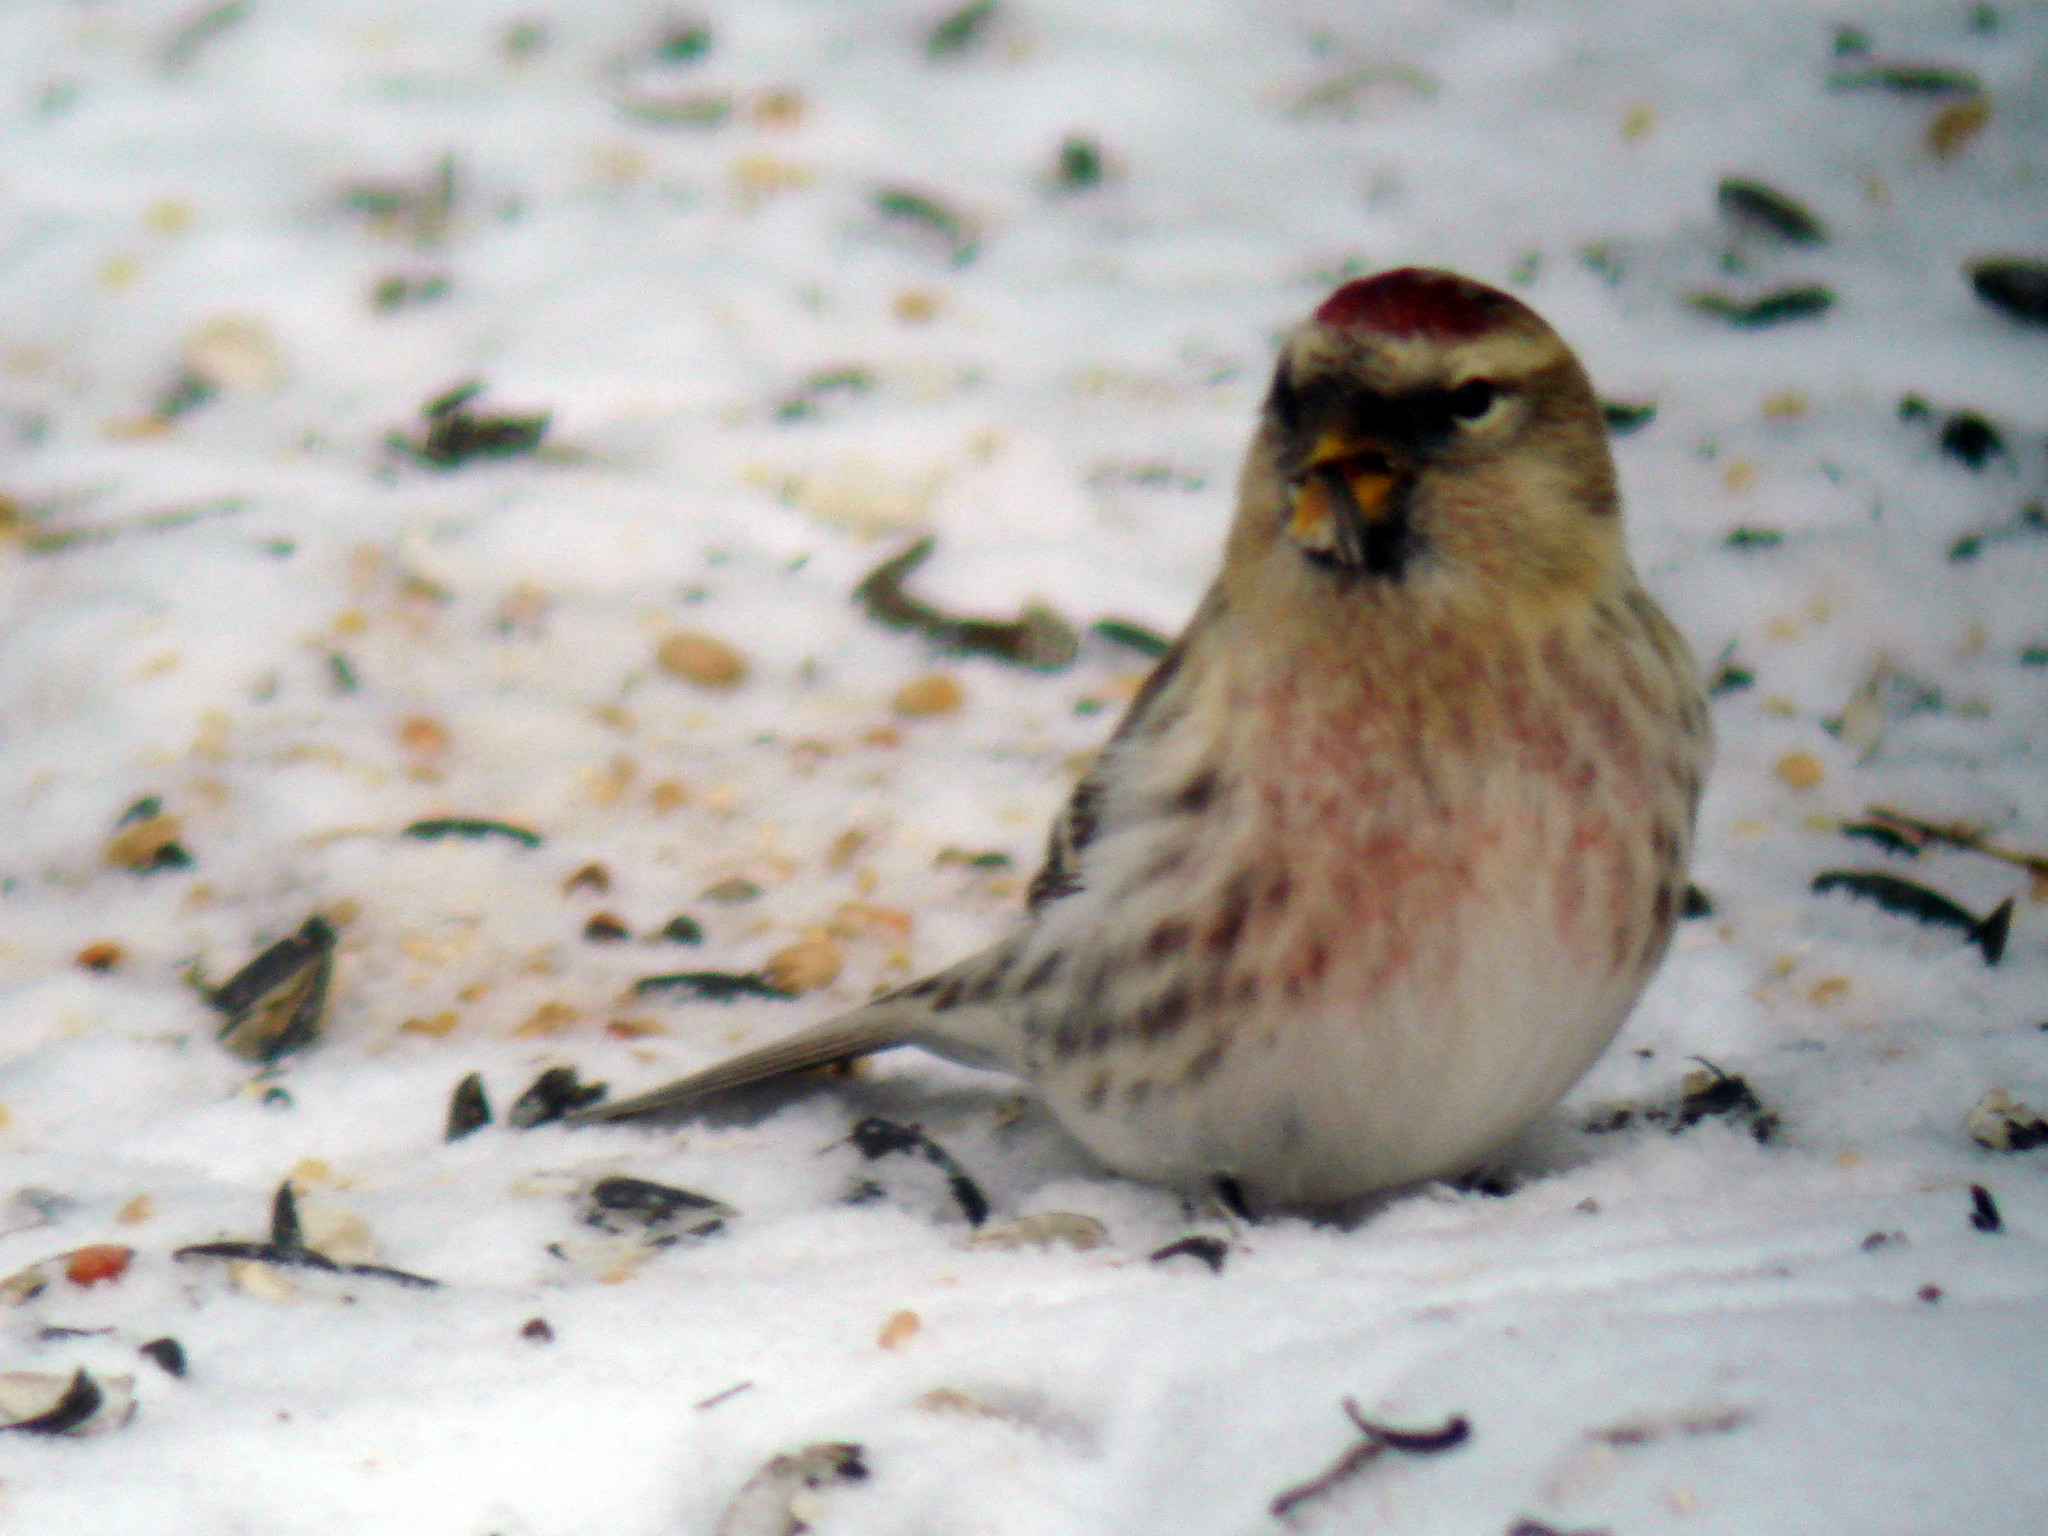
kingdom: Animalia
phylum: Chordata
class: Aves
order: Passeriformes
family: Fringillidae
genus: Acanthis
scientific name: Acanthis hornemanni
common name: Arctic redpoll
